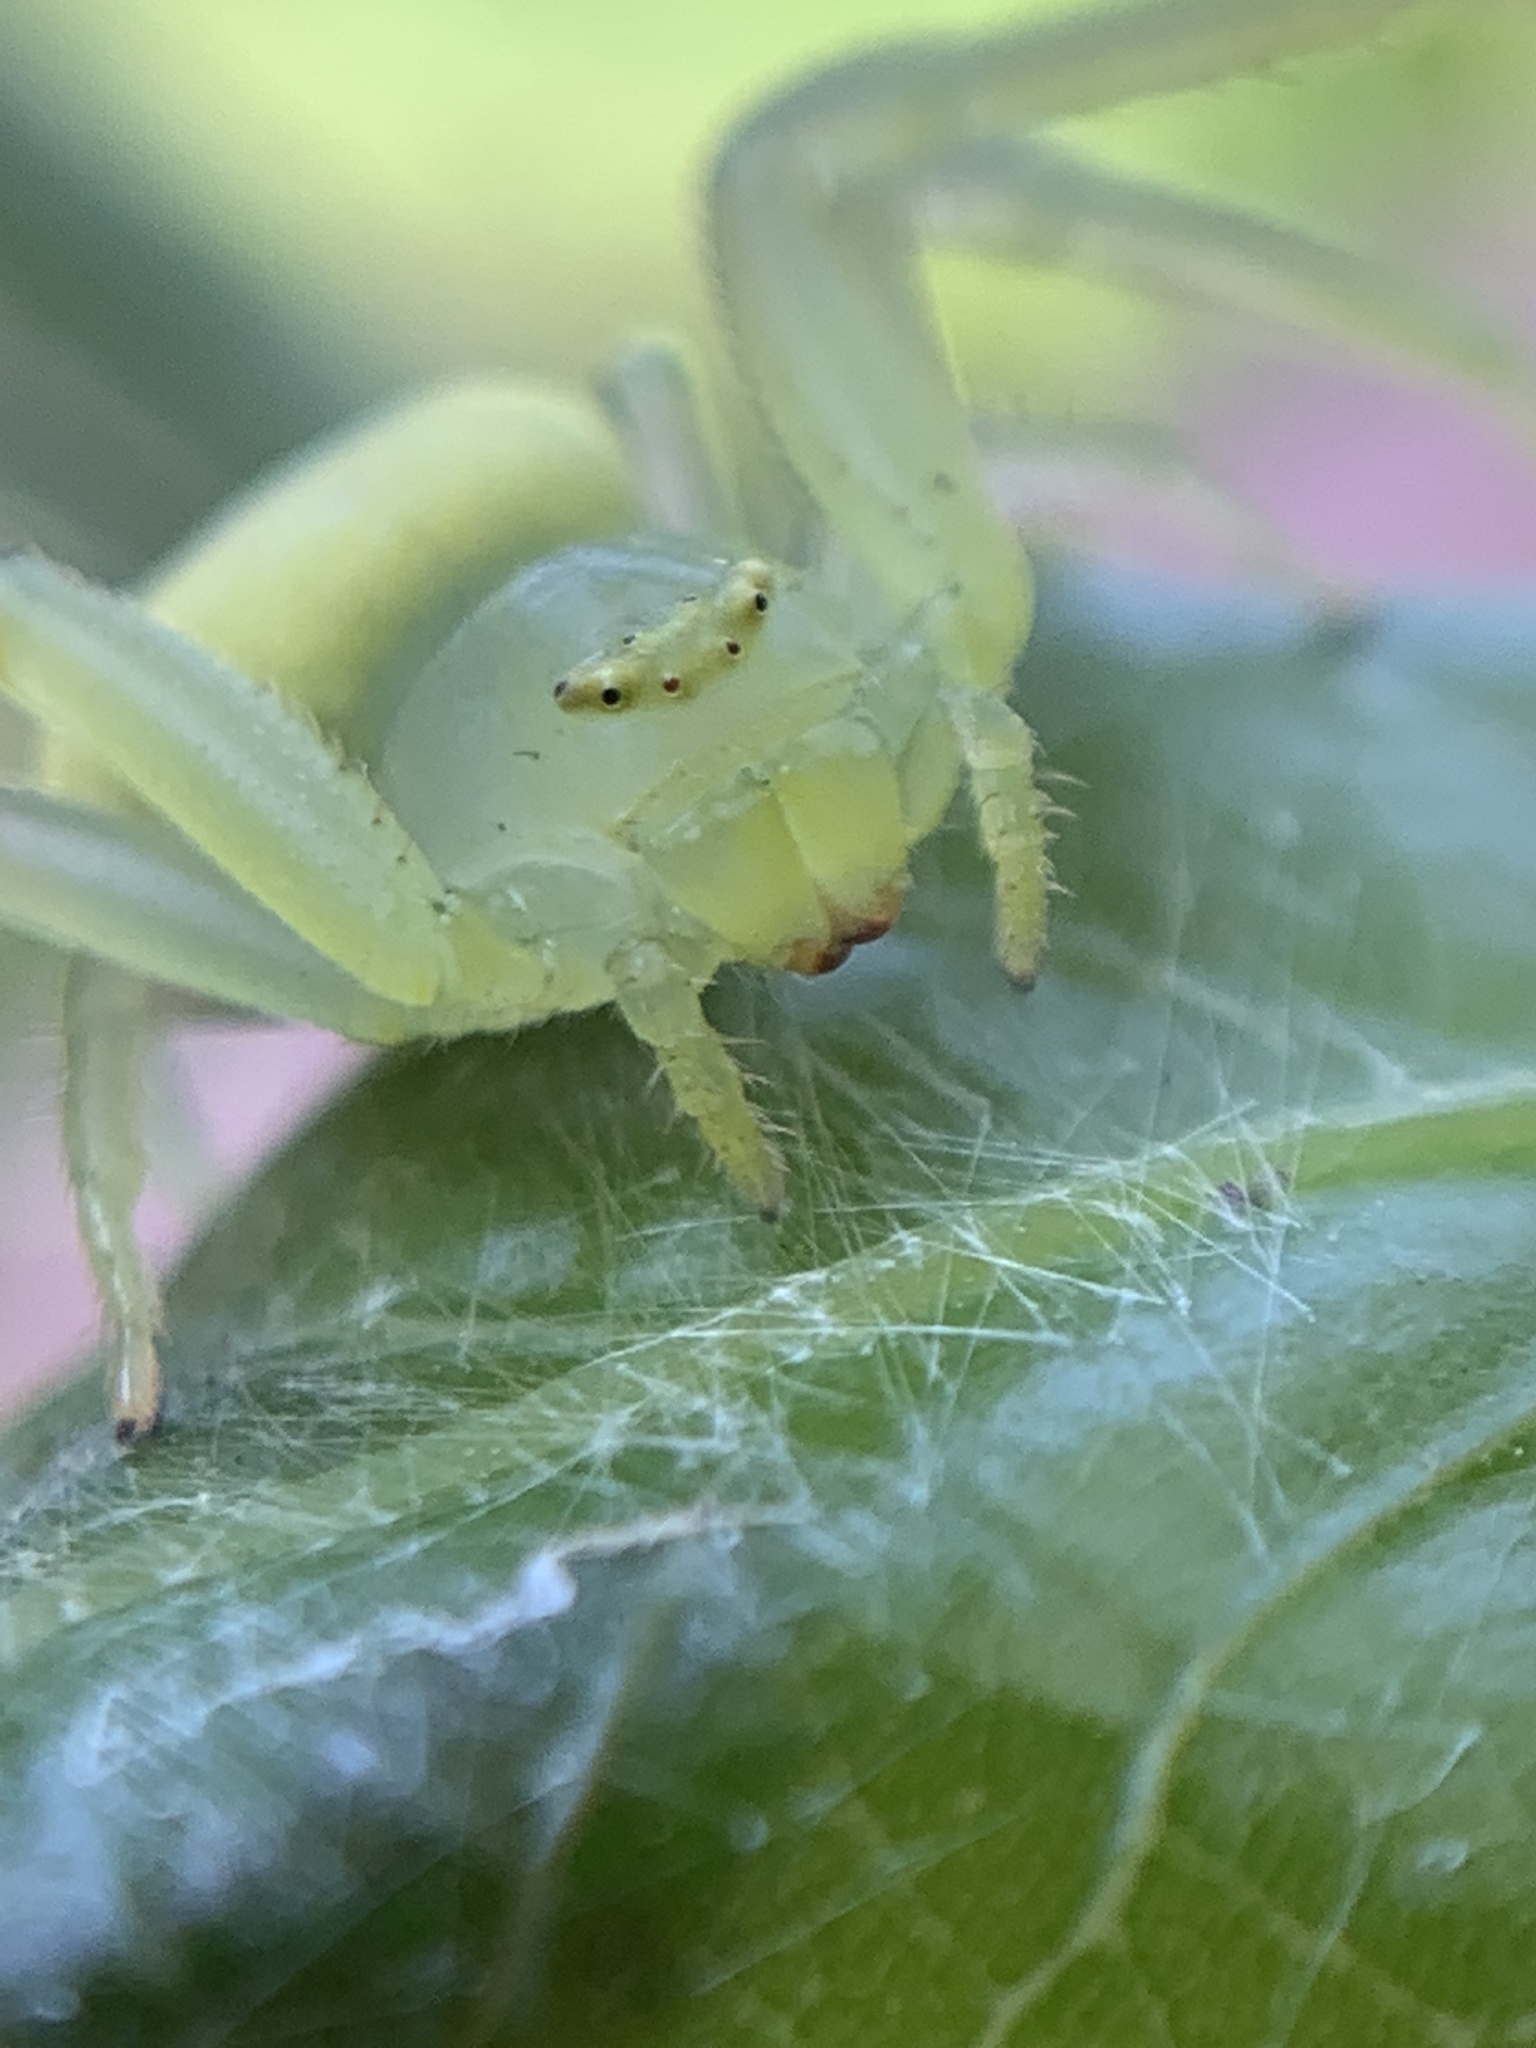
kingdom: Animalia
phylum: Arthropoda
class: Arachnida
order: Araneae
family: Thomisidae
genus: Misumenops
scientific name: Misumenops
